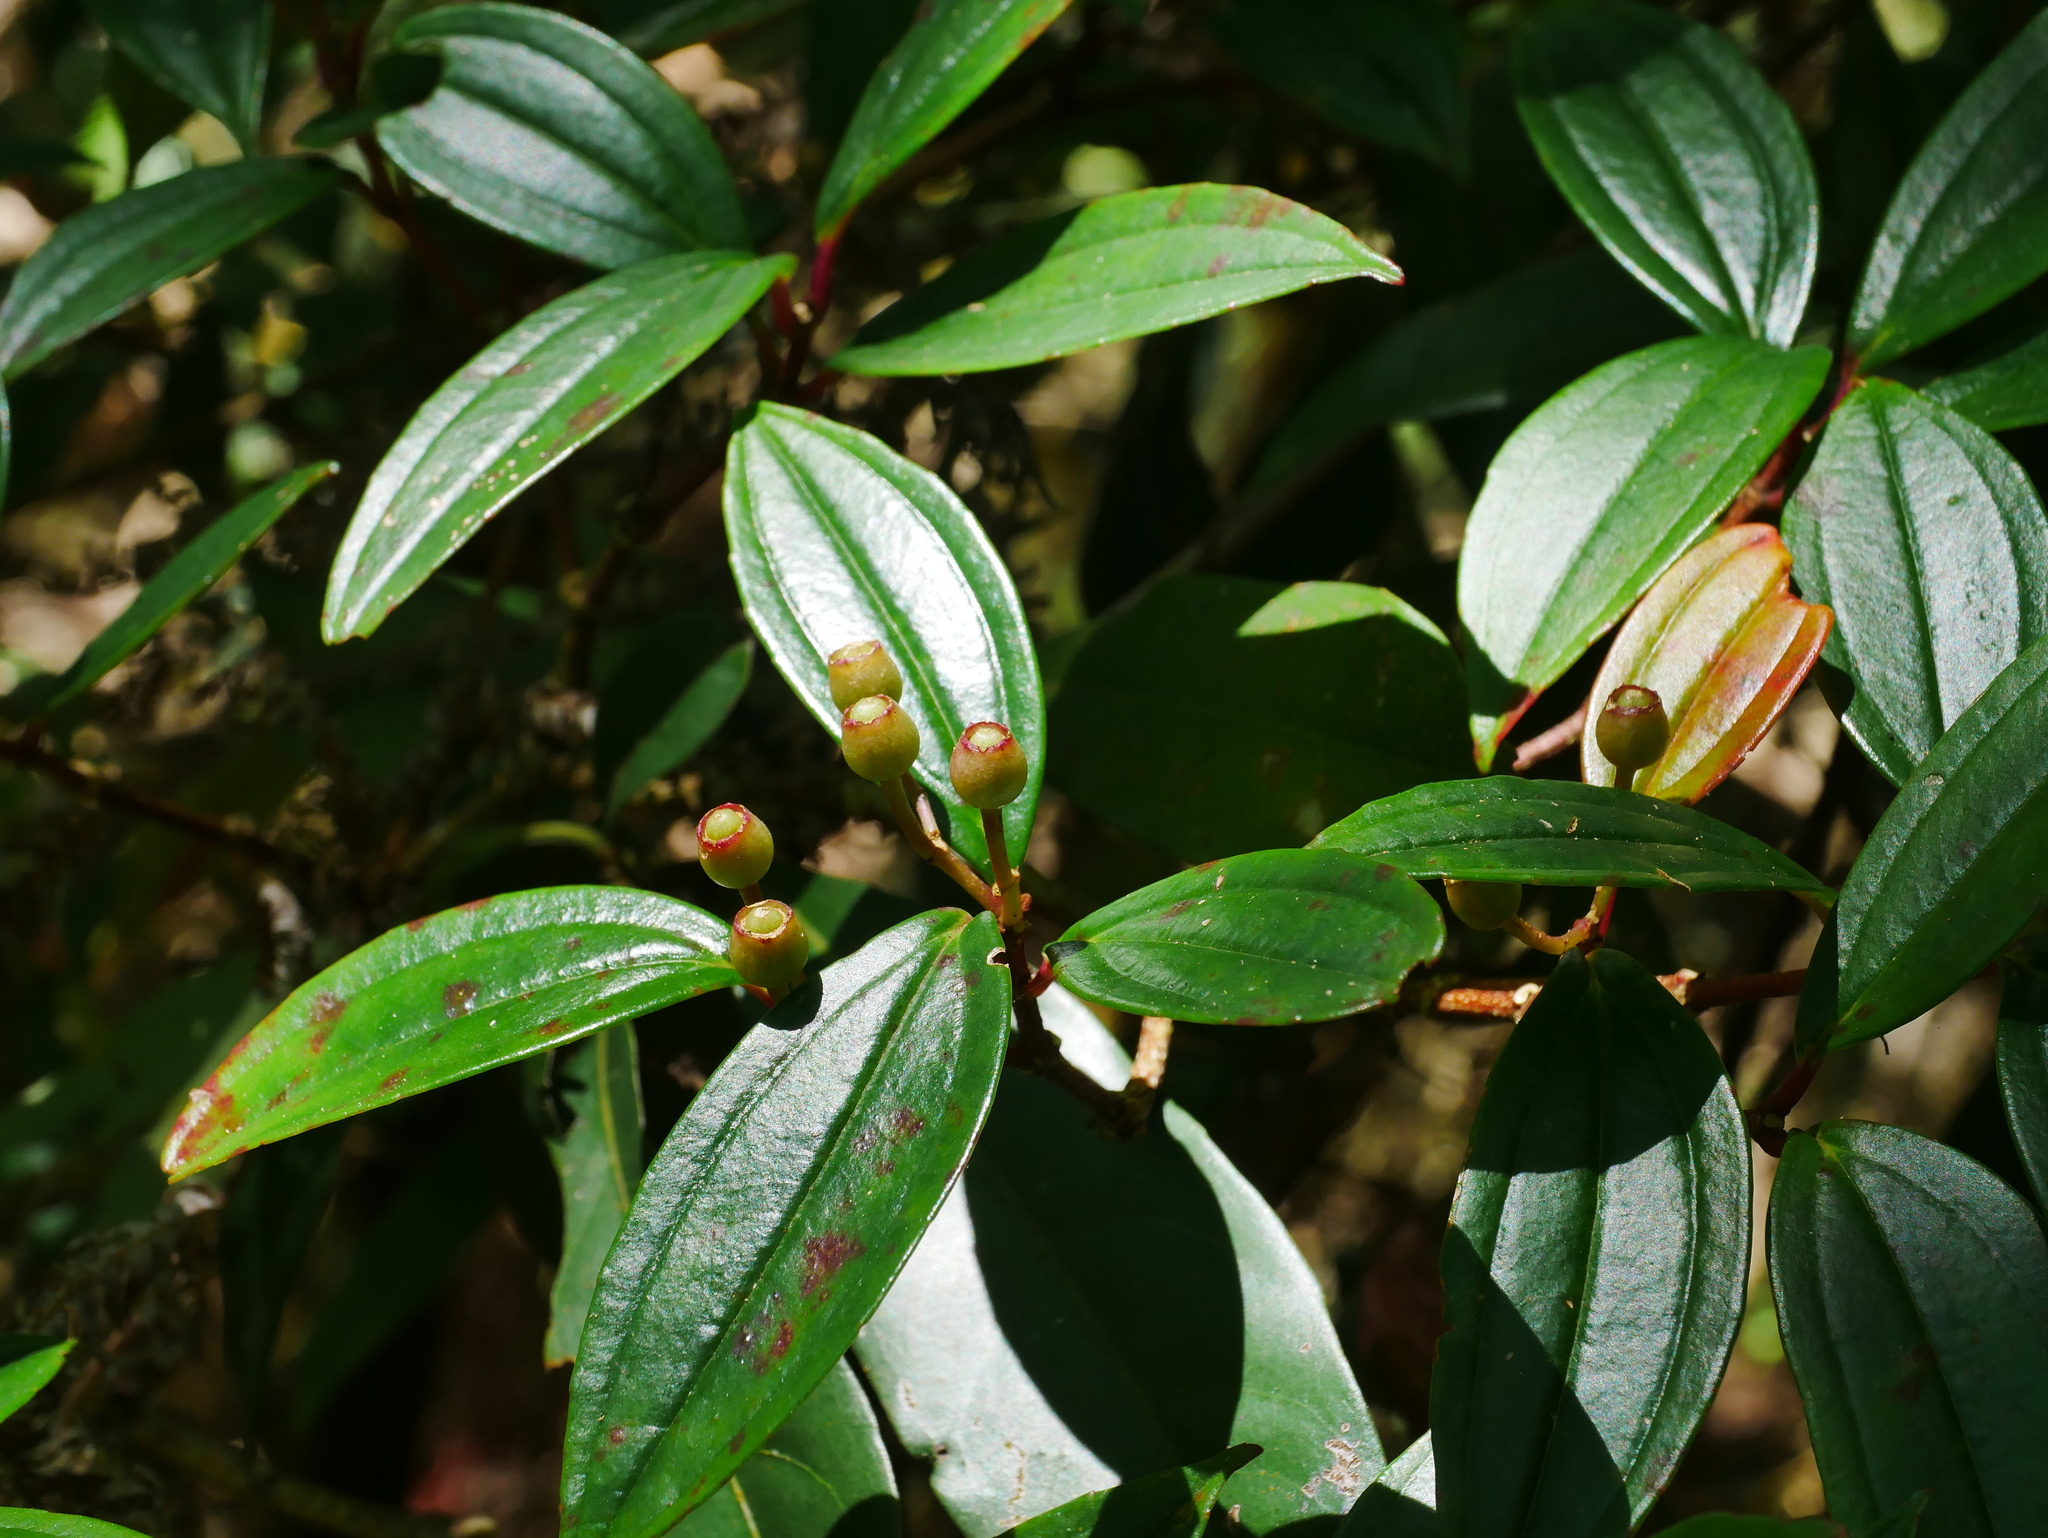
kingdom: Plantae
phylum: Tracheophyta
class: Magnoliopsida
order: Myrtales
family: Melastomataceae
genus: Medinilla
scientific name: Medinilla fengii
